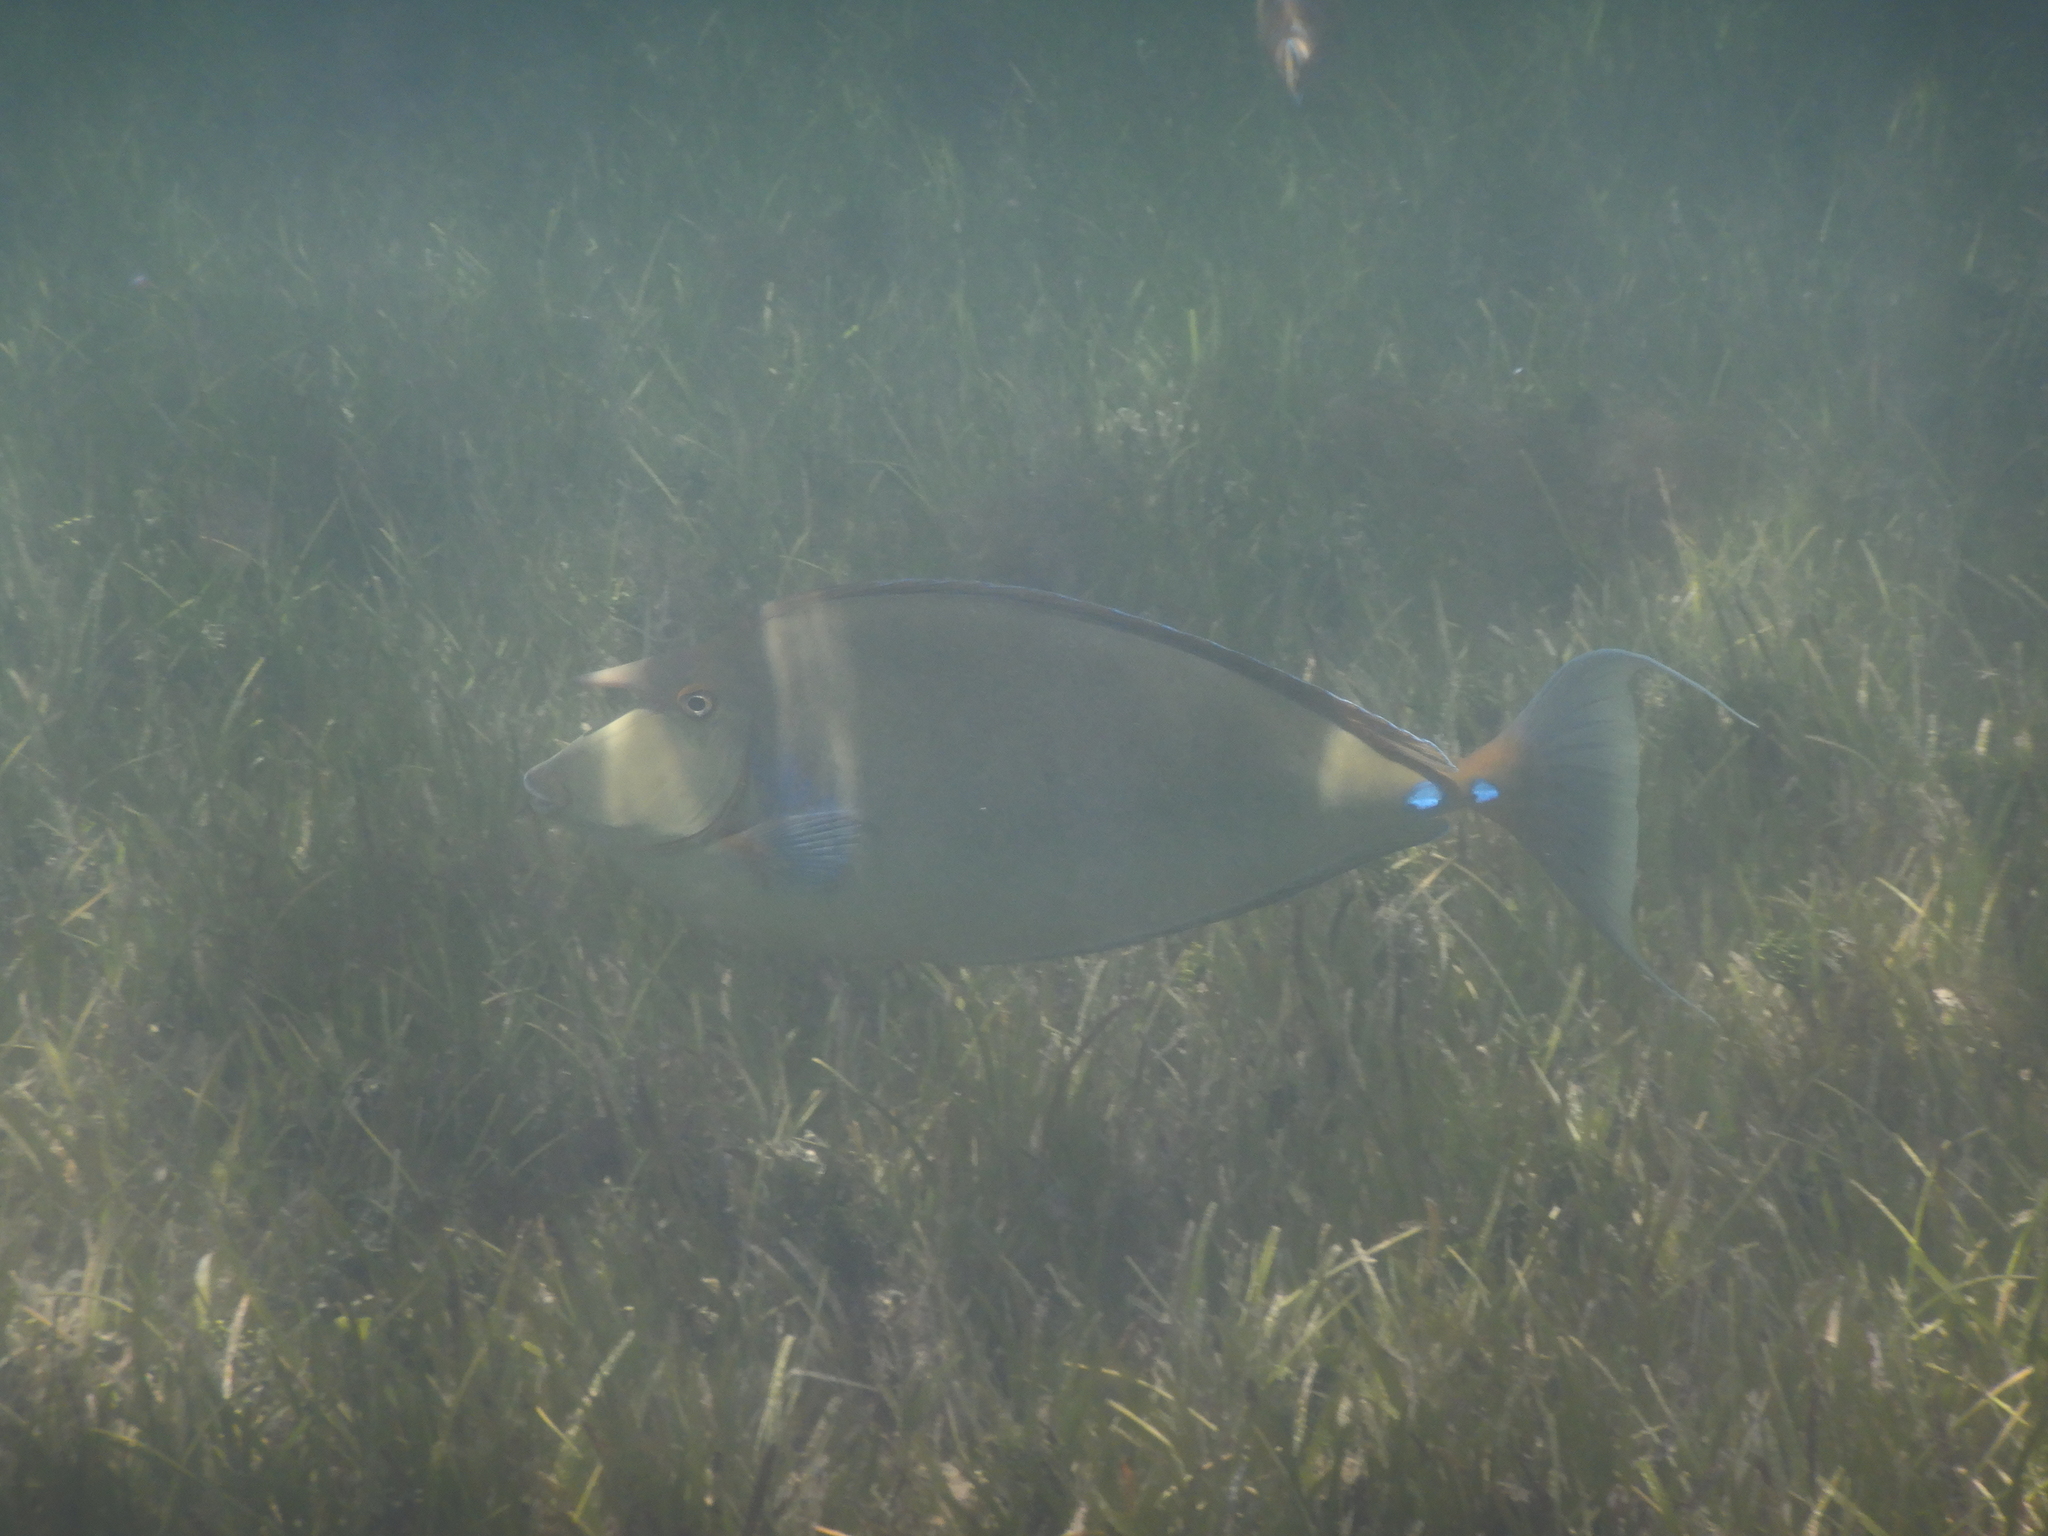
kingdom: Animalia
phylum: Chordata
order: Perciformes
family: Acanthuridae
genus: Naso
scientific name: Naso unicornis
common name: Bluespine unicornfish
